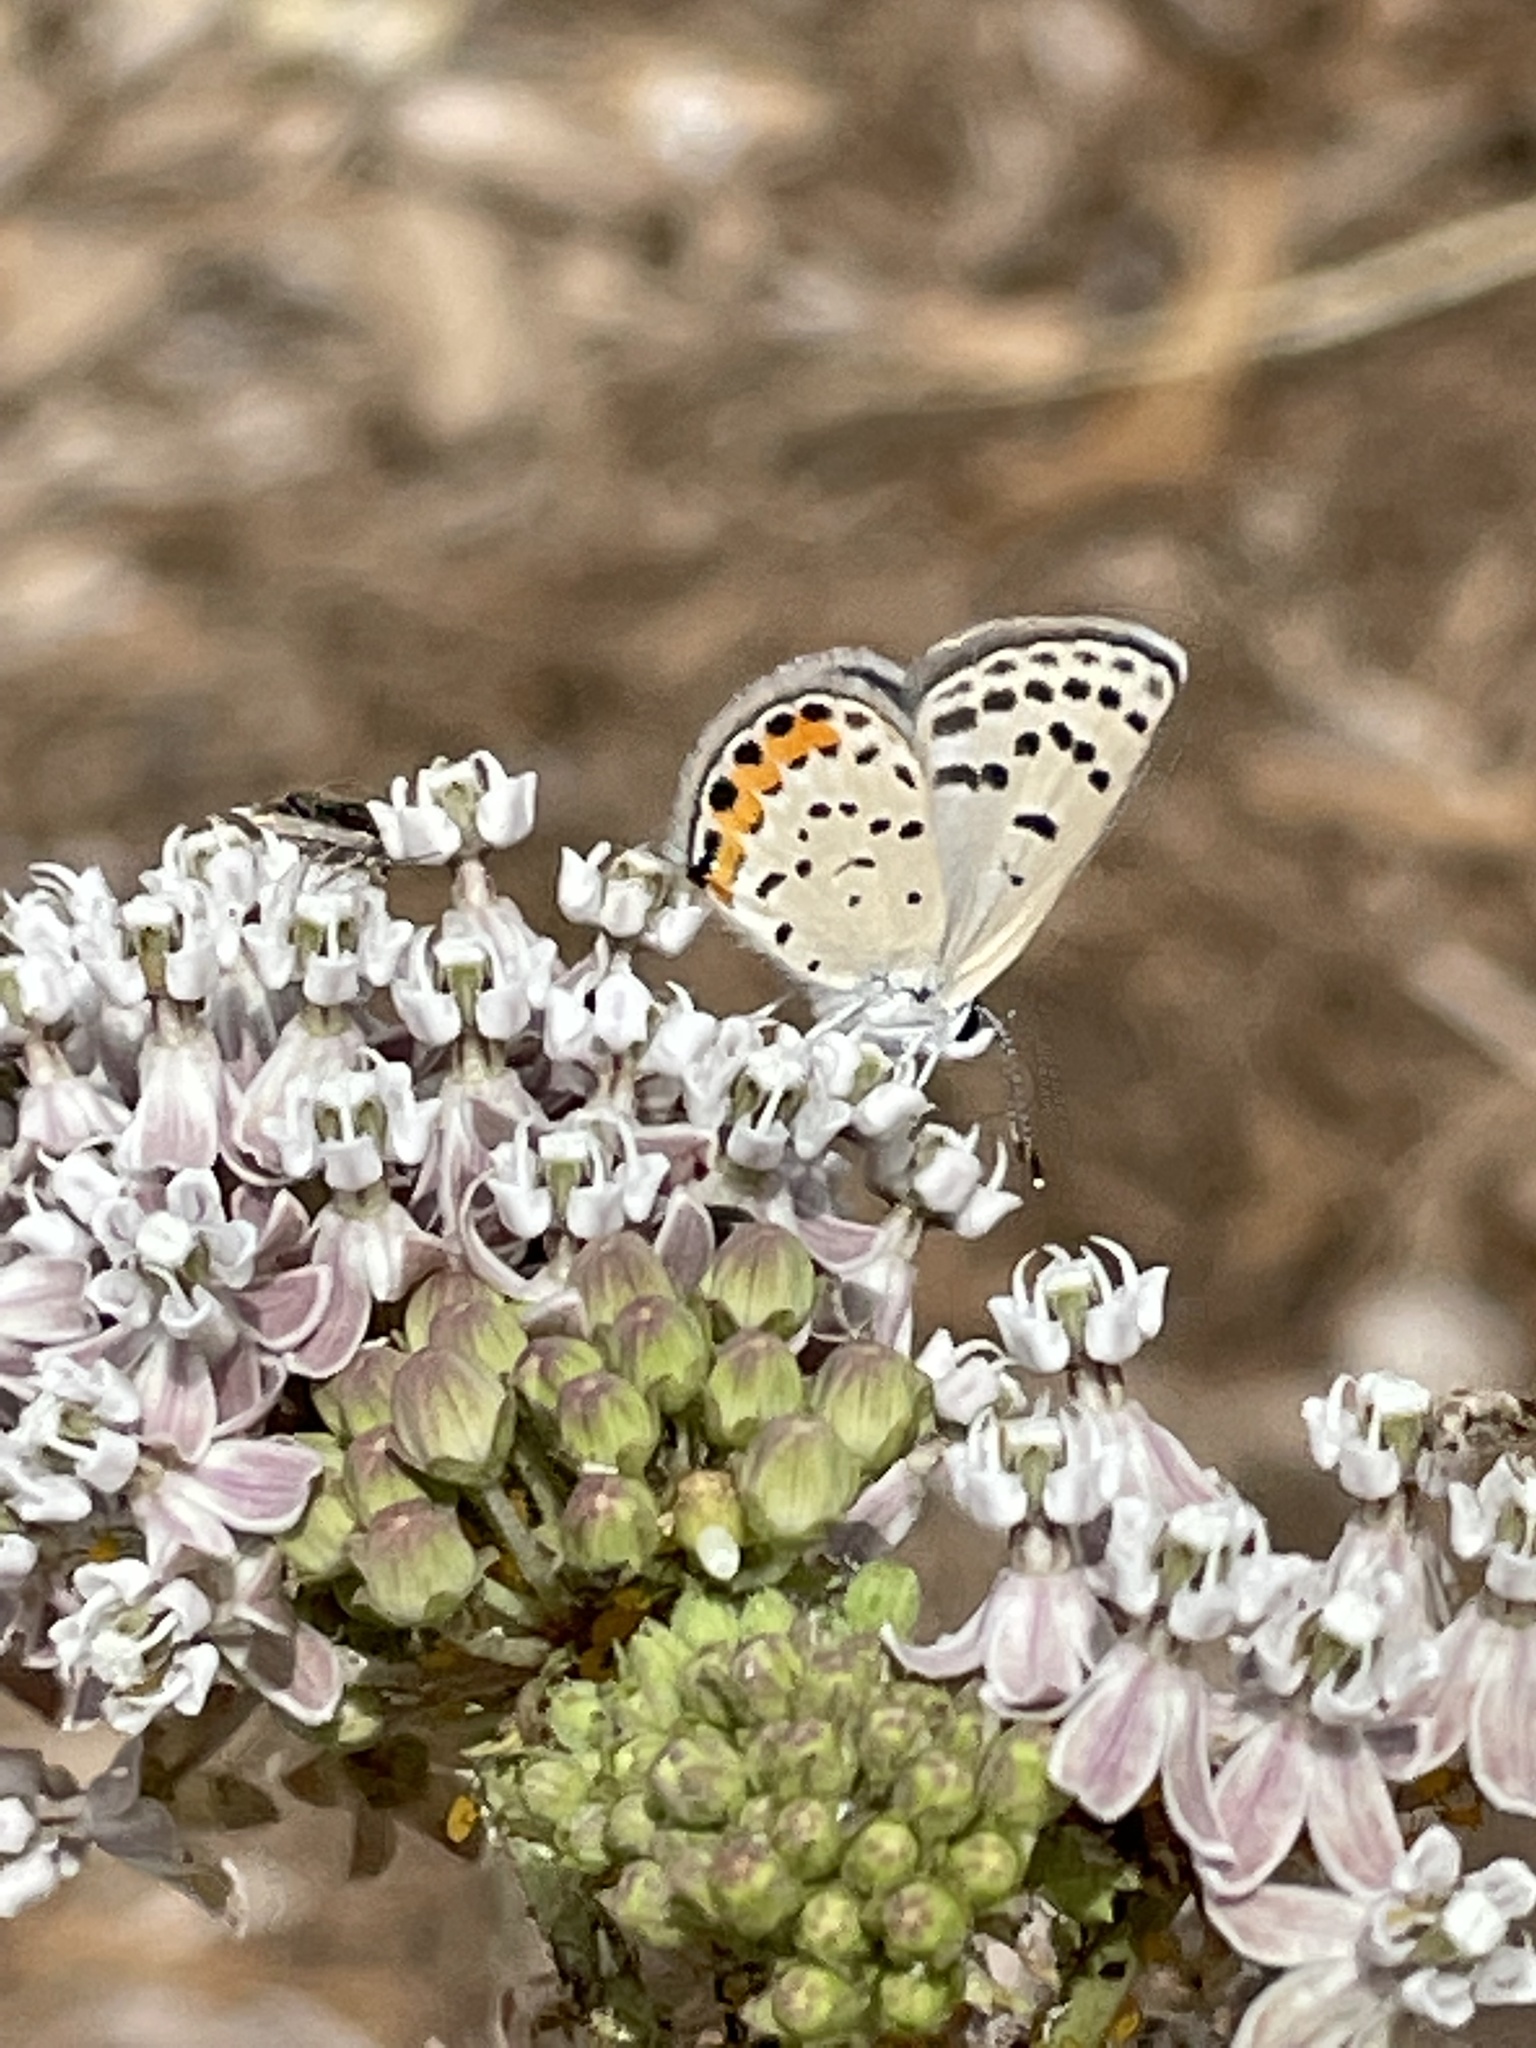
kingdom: Animalia
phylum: Arthropoda
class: Insecta
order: Lepidoptera
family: Lycaenidae
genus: Icaricia
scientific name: Icaricia acmon
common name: Acmon blue
